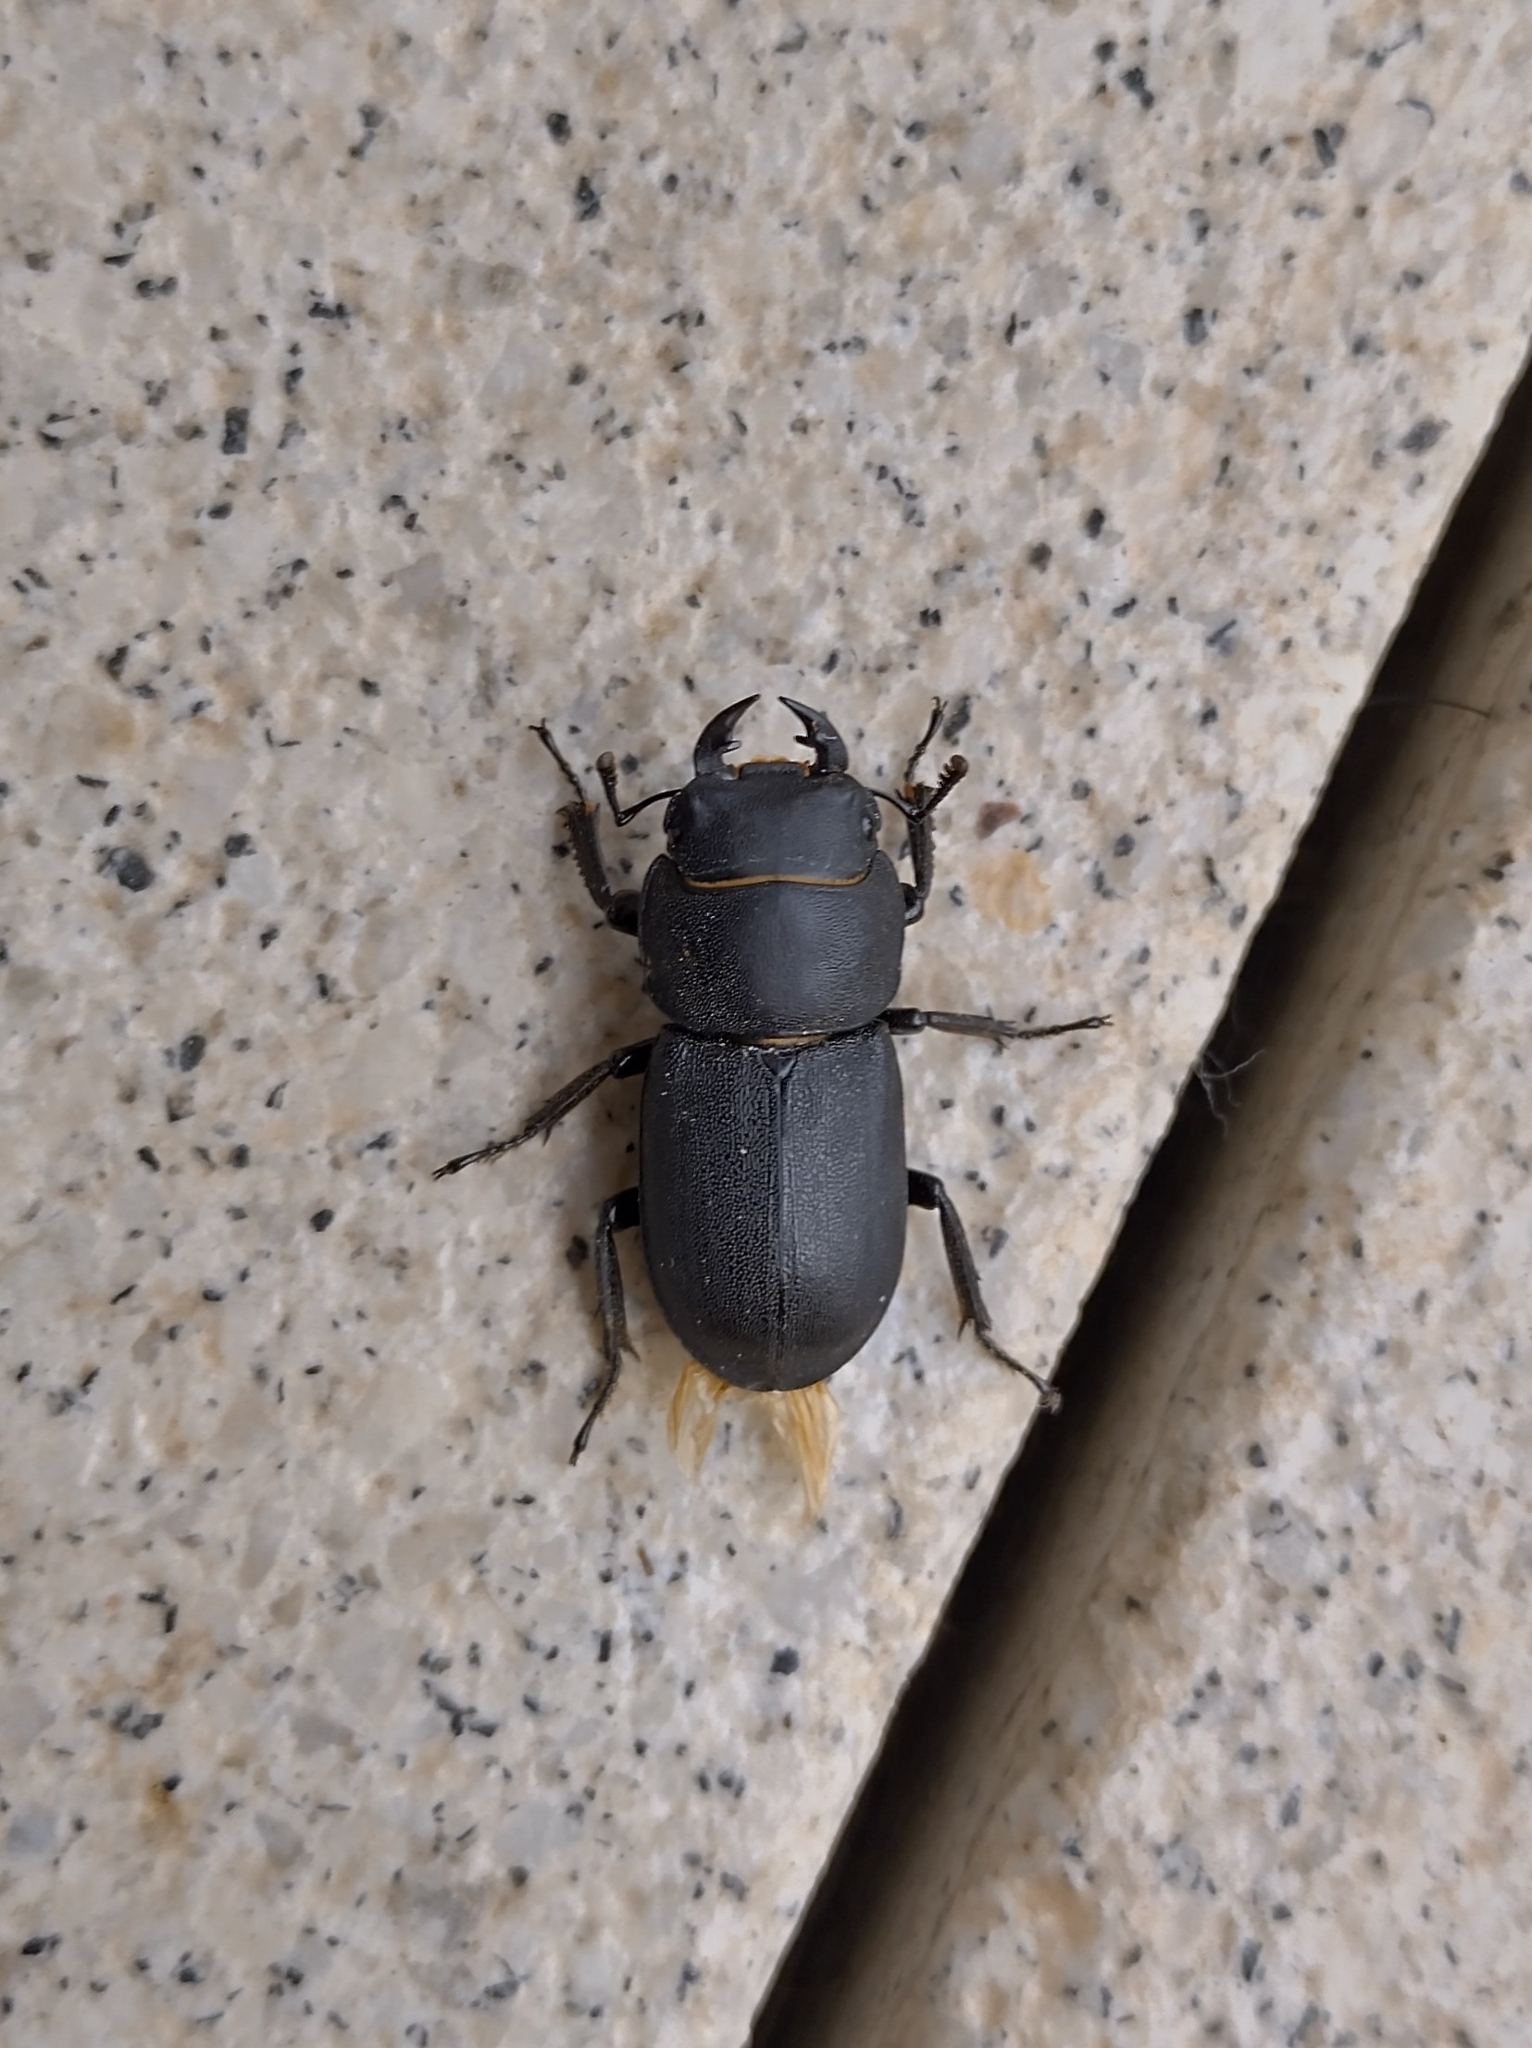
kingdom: Animalia
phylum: Arthropoda
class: Insecta
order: Coleoptera
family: Lucanidae
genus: Dorcus
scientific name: Dorcus parallelipipedus
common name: Lesser stag beetle
